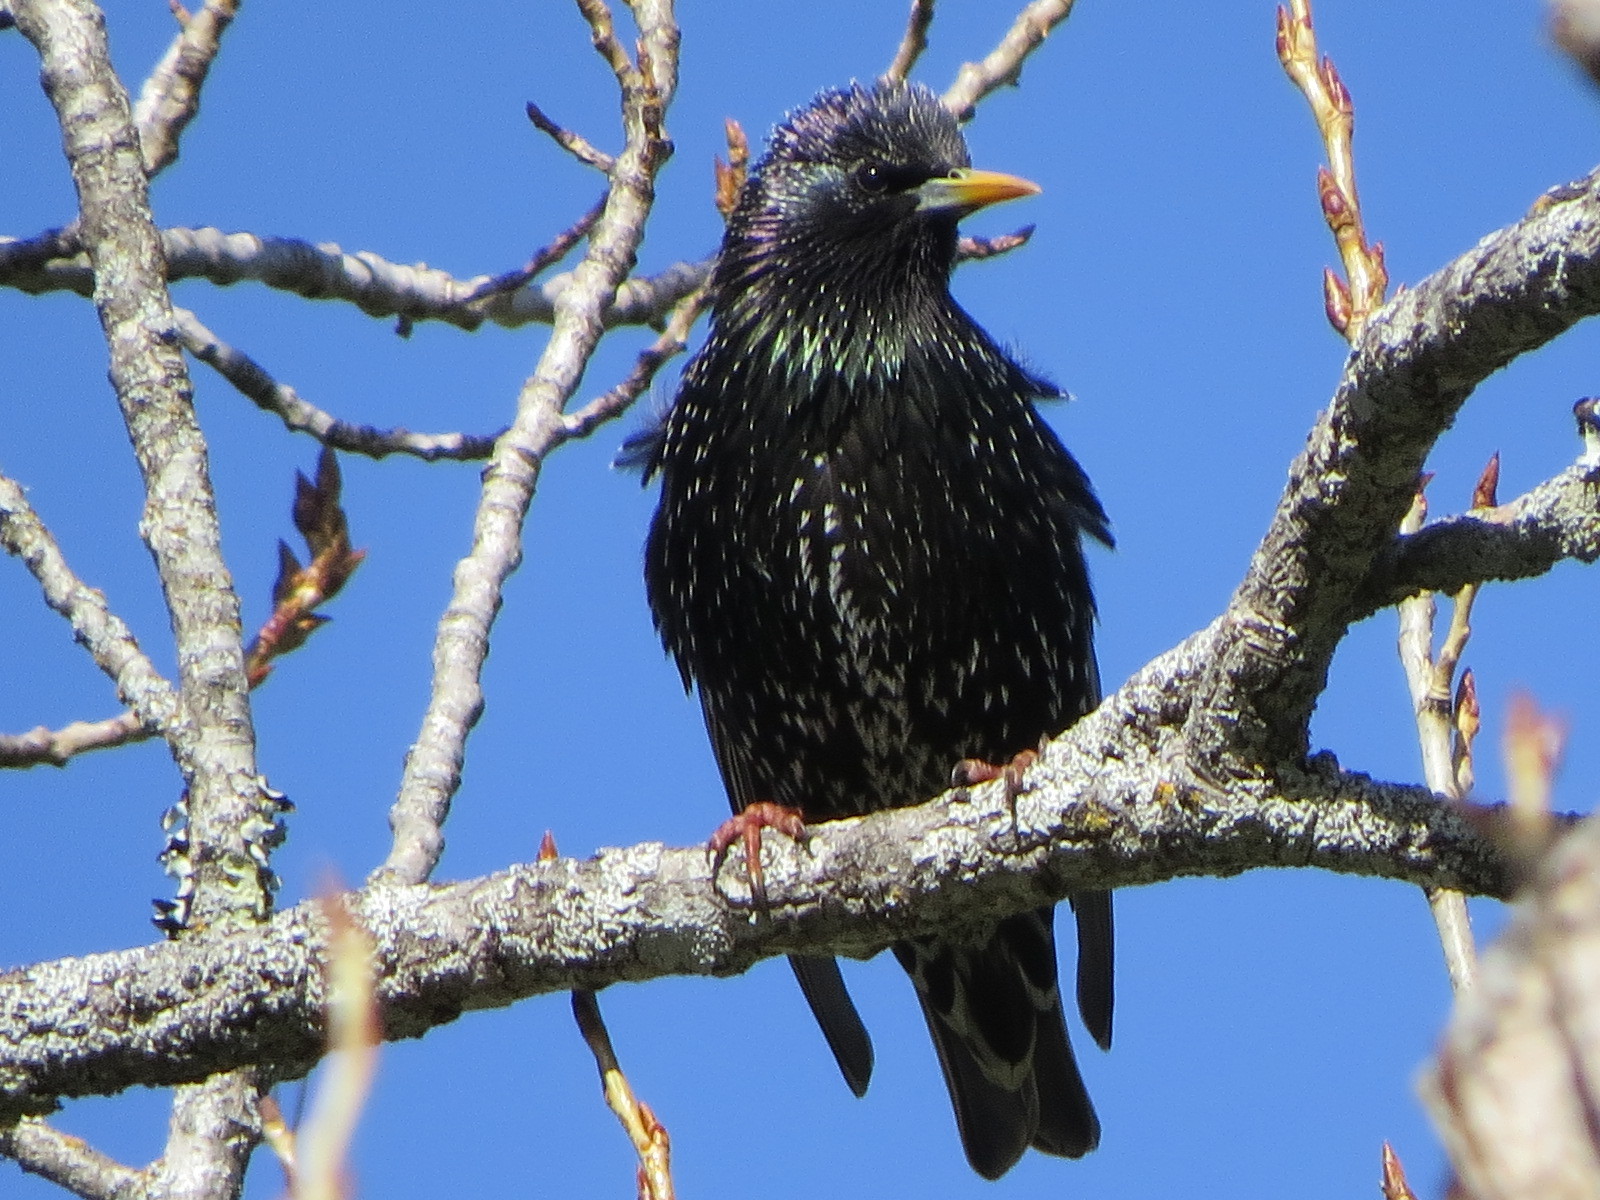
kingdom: Animalia
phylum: Chordata
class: Aves
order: Passeriformes
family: Sturnidae
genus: Sturnus
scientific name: Sturnus vulgaris
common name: Common starling
